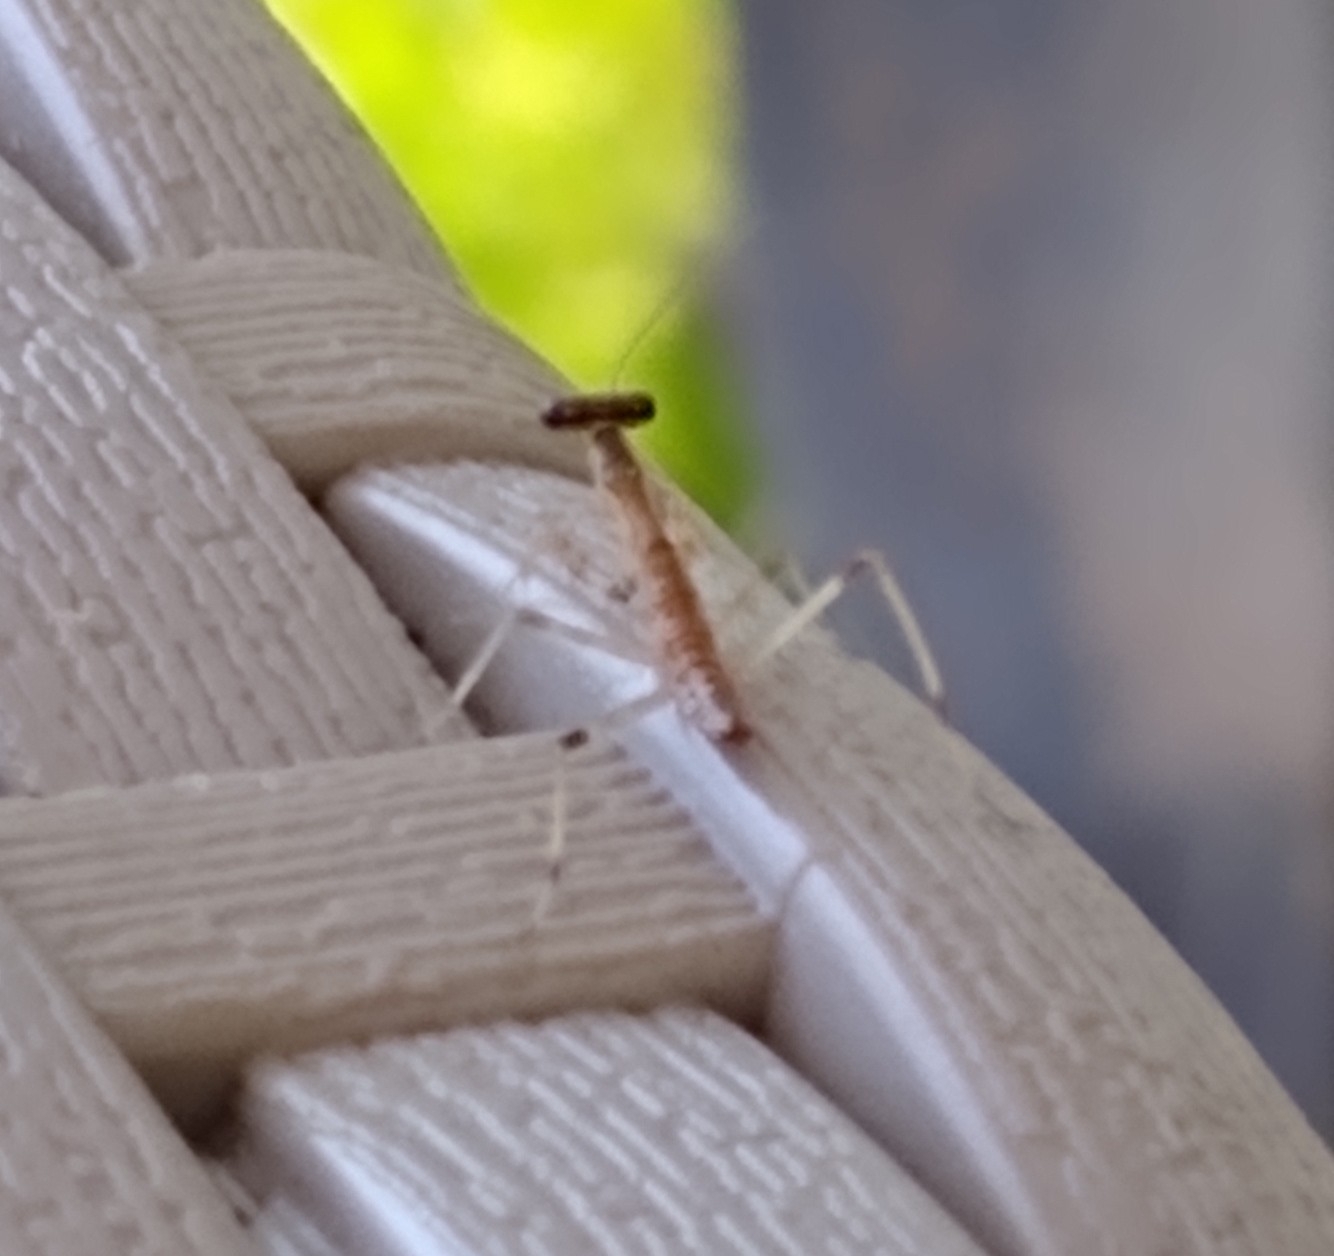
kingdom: Animalia
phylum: Arthropoda
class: Insecta
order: Mantodea
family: Mantidae
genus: Stagmomantis
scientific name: Stagmomantis carolina
